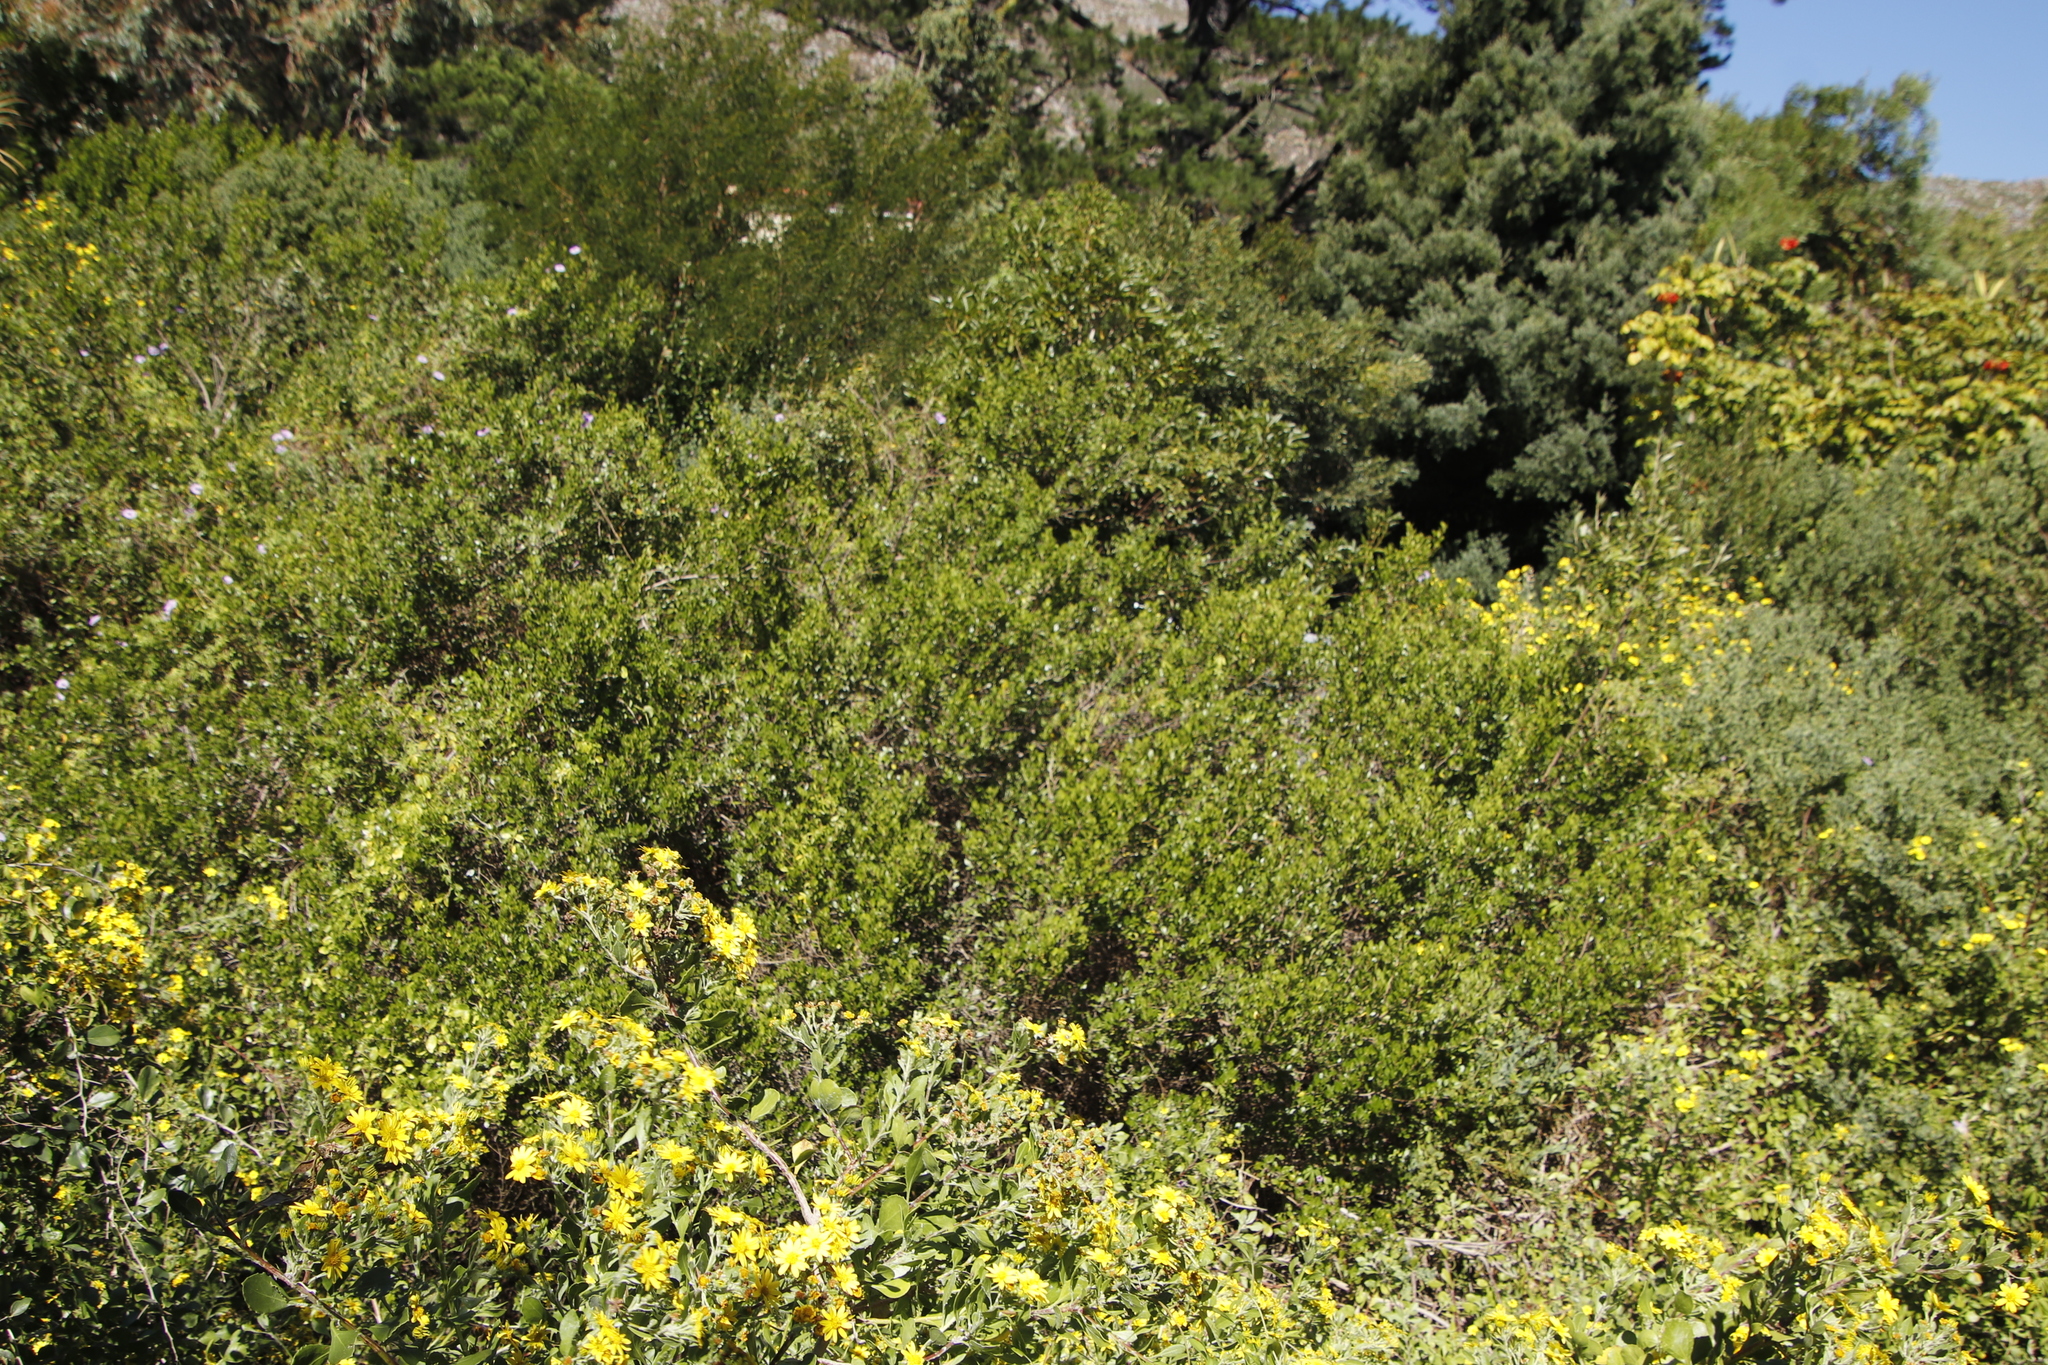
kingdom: Plantae
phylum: Tracheophyta
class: Magnoliopsida
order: Sapindales
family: Anacardiaceae
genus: Searsia
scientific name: Searsia lucida
